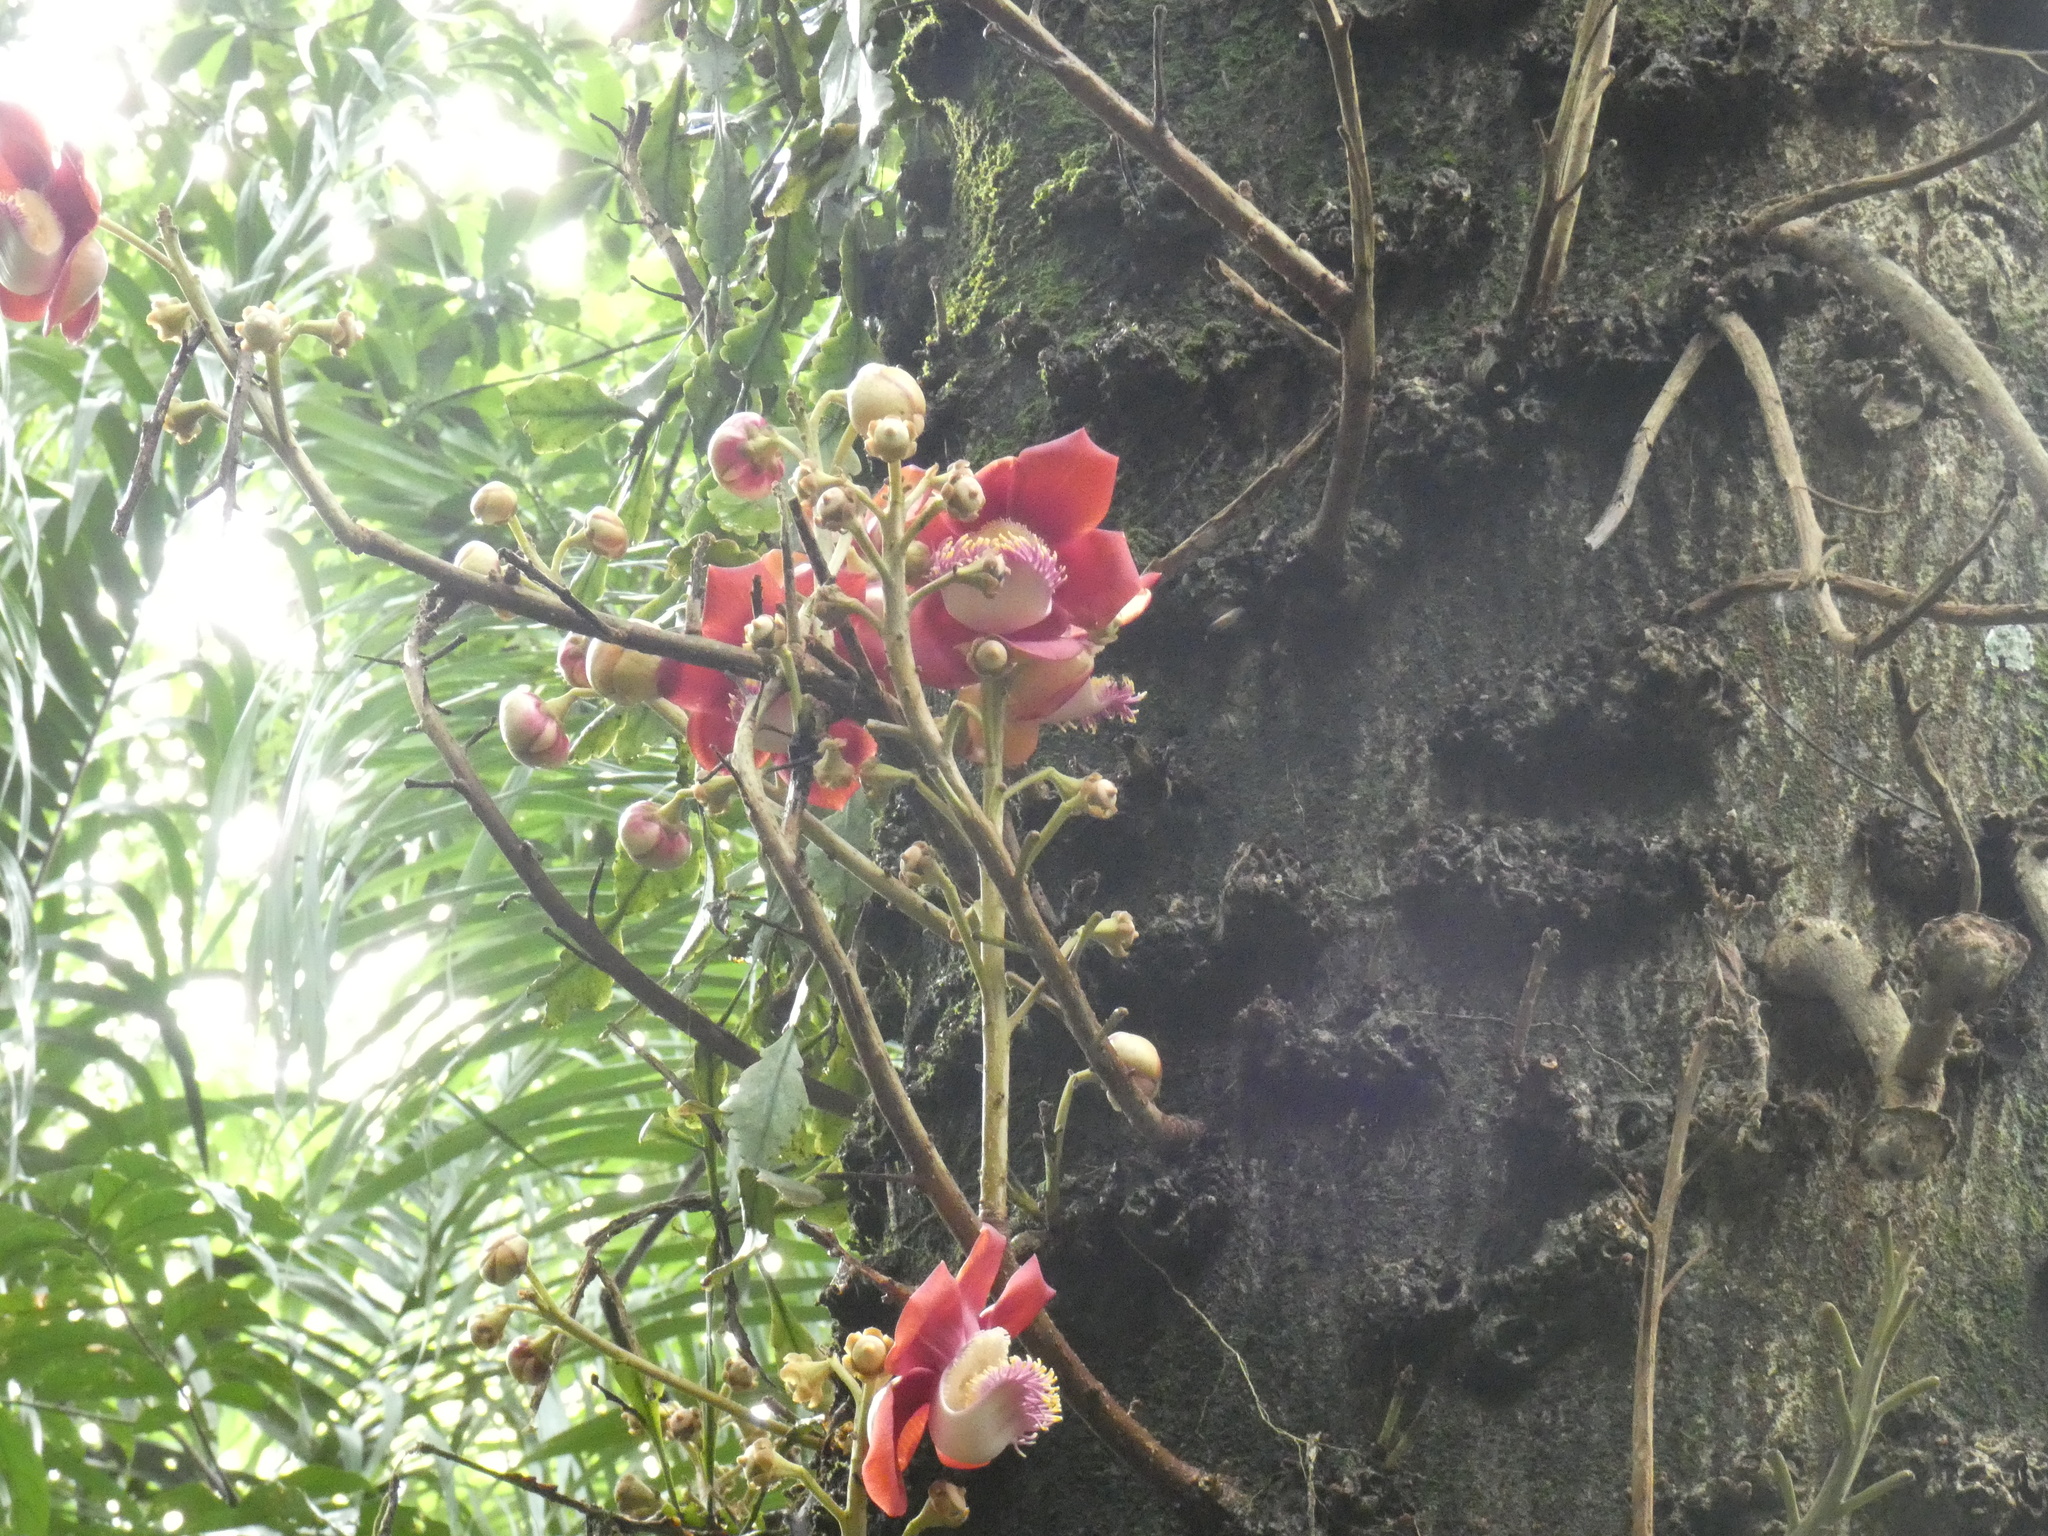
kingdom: Plantae
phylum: Tracheophyta
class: Magnoliopsida
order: Ericales
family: Lecythidaceae
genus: Couroupita
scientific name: Couroupita guianensis
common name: Cannonball tree
